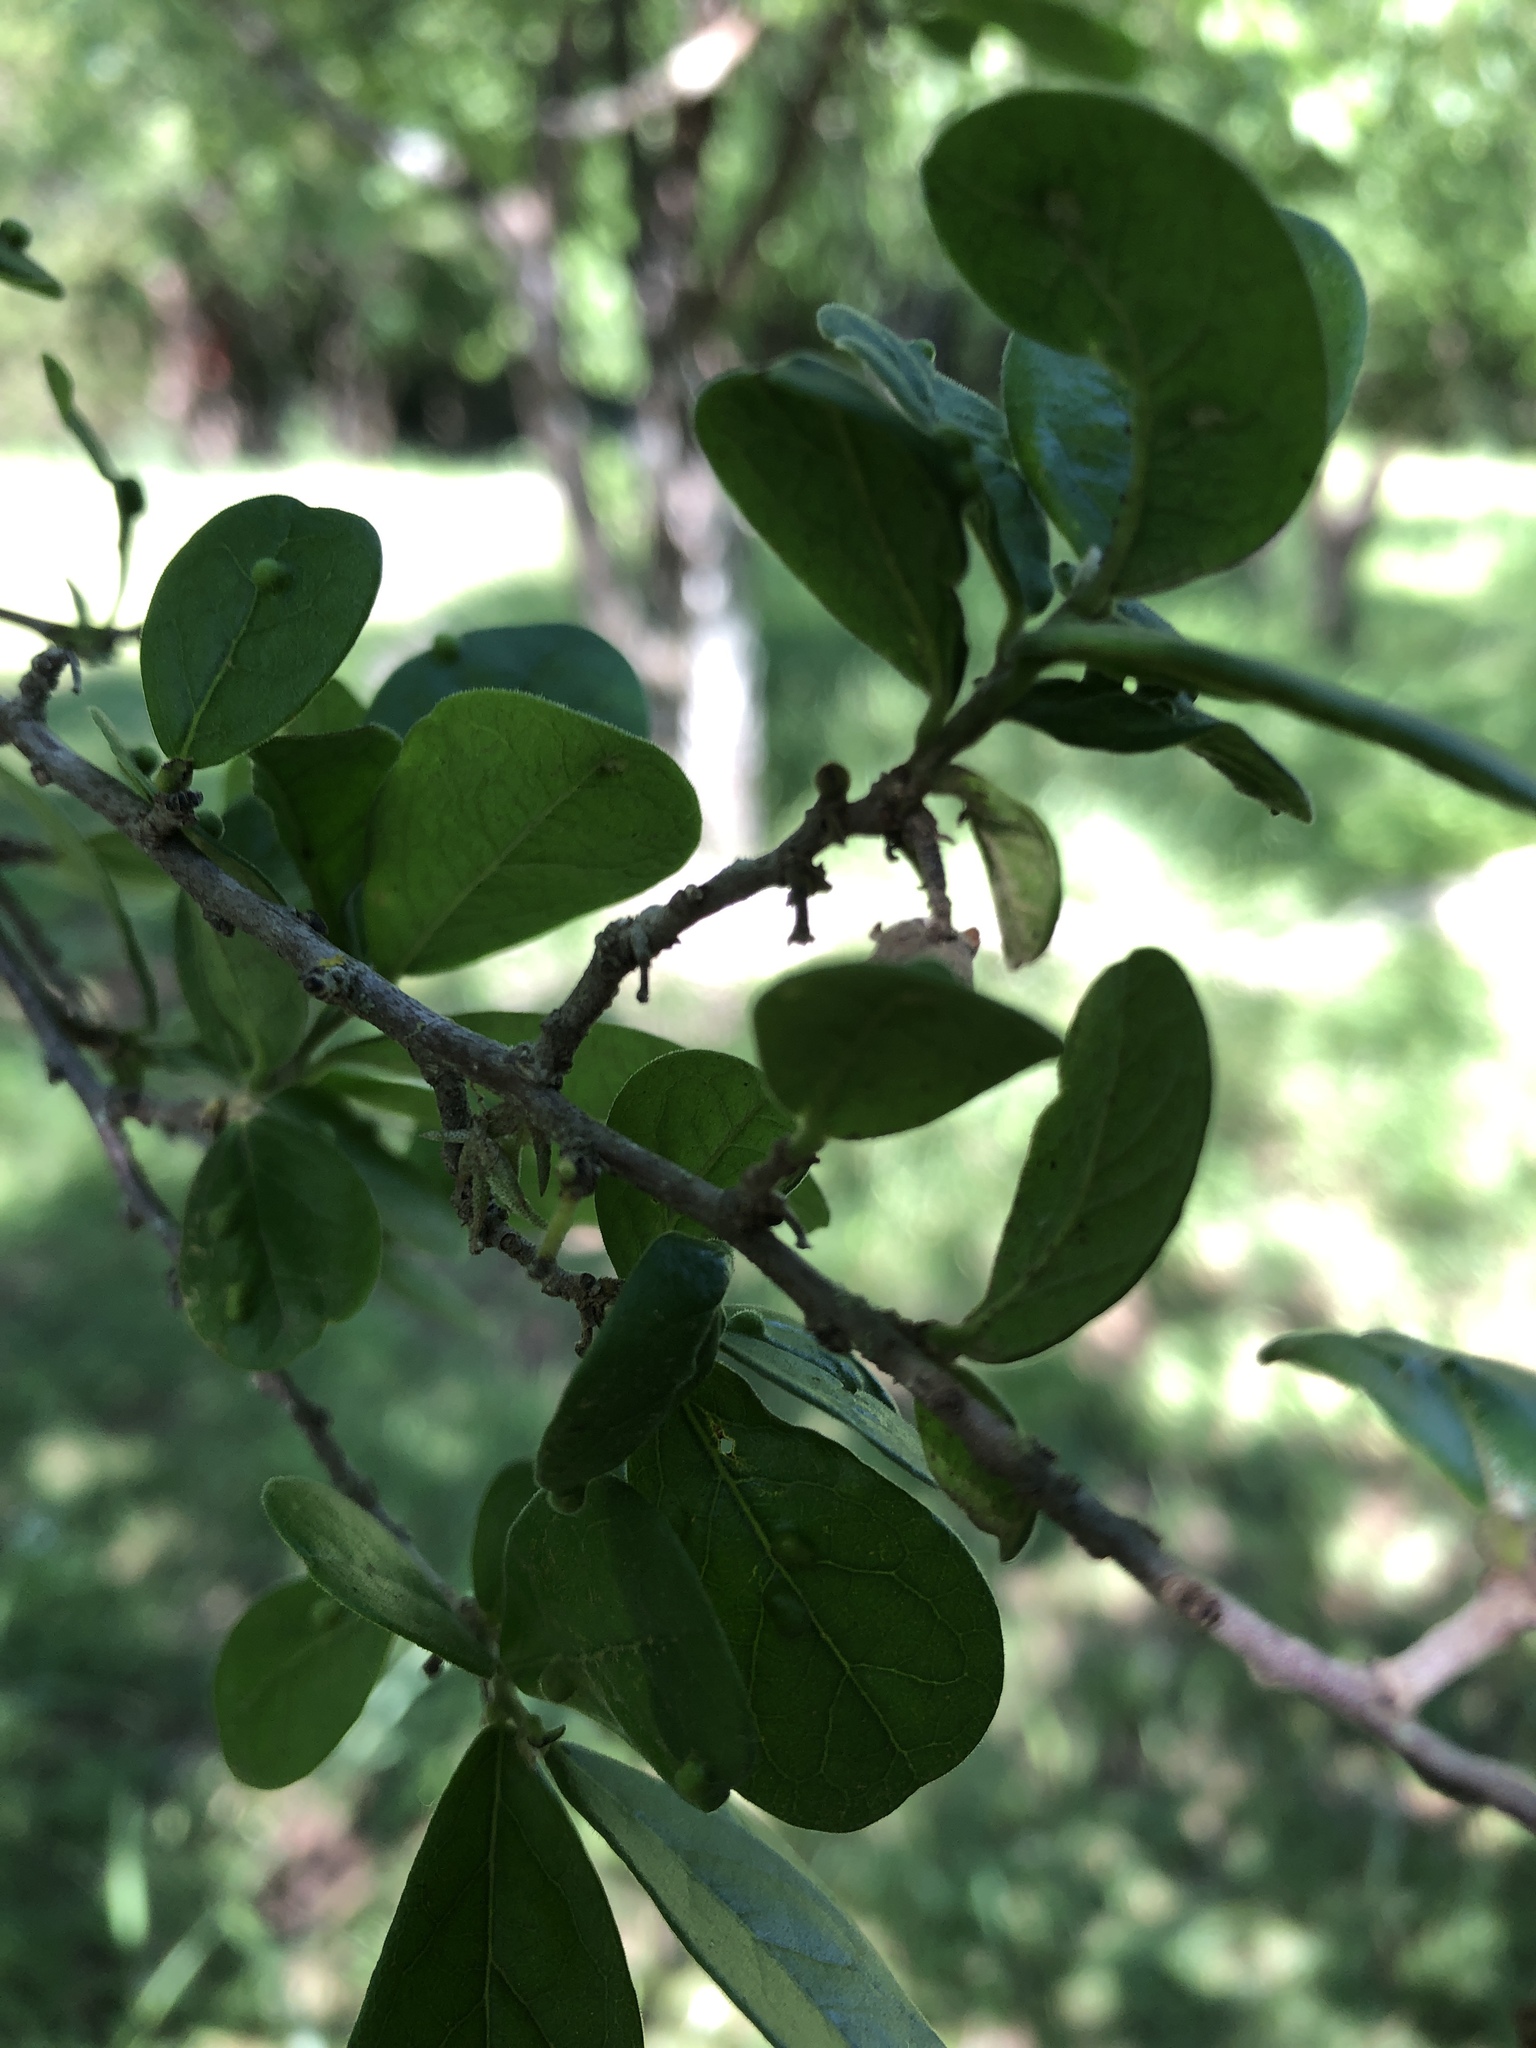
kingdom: Plantae
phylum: Tracheophyta
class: Magnoliopsida
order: Ericales
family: Ebenaceae
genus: Diospyros
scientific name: Diospyros texana
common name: Texas persimmon
